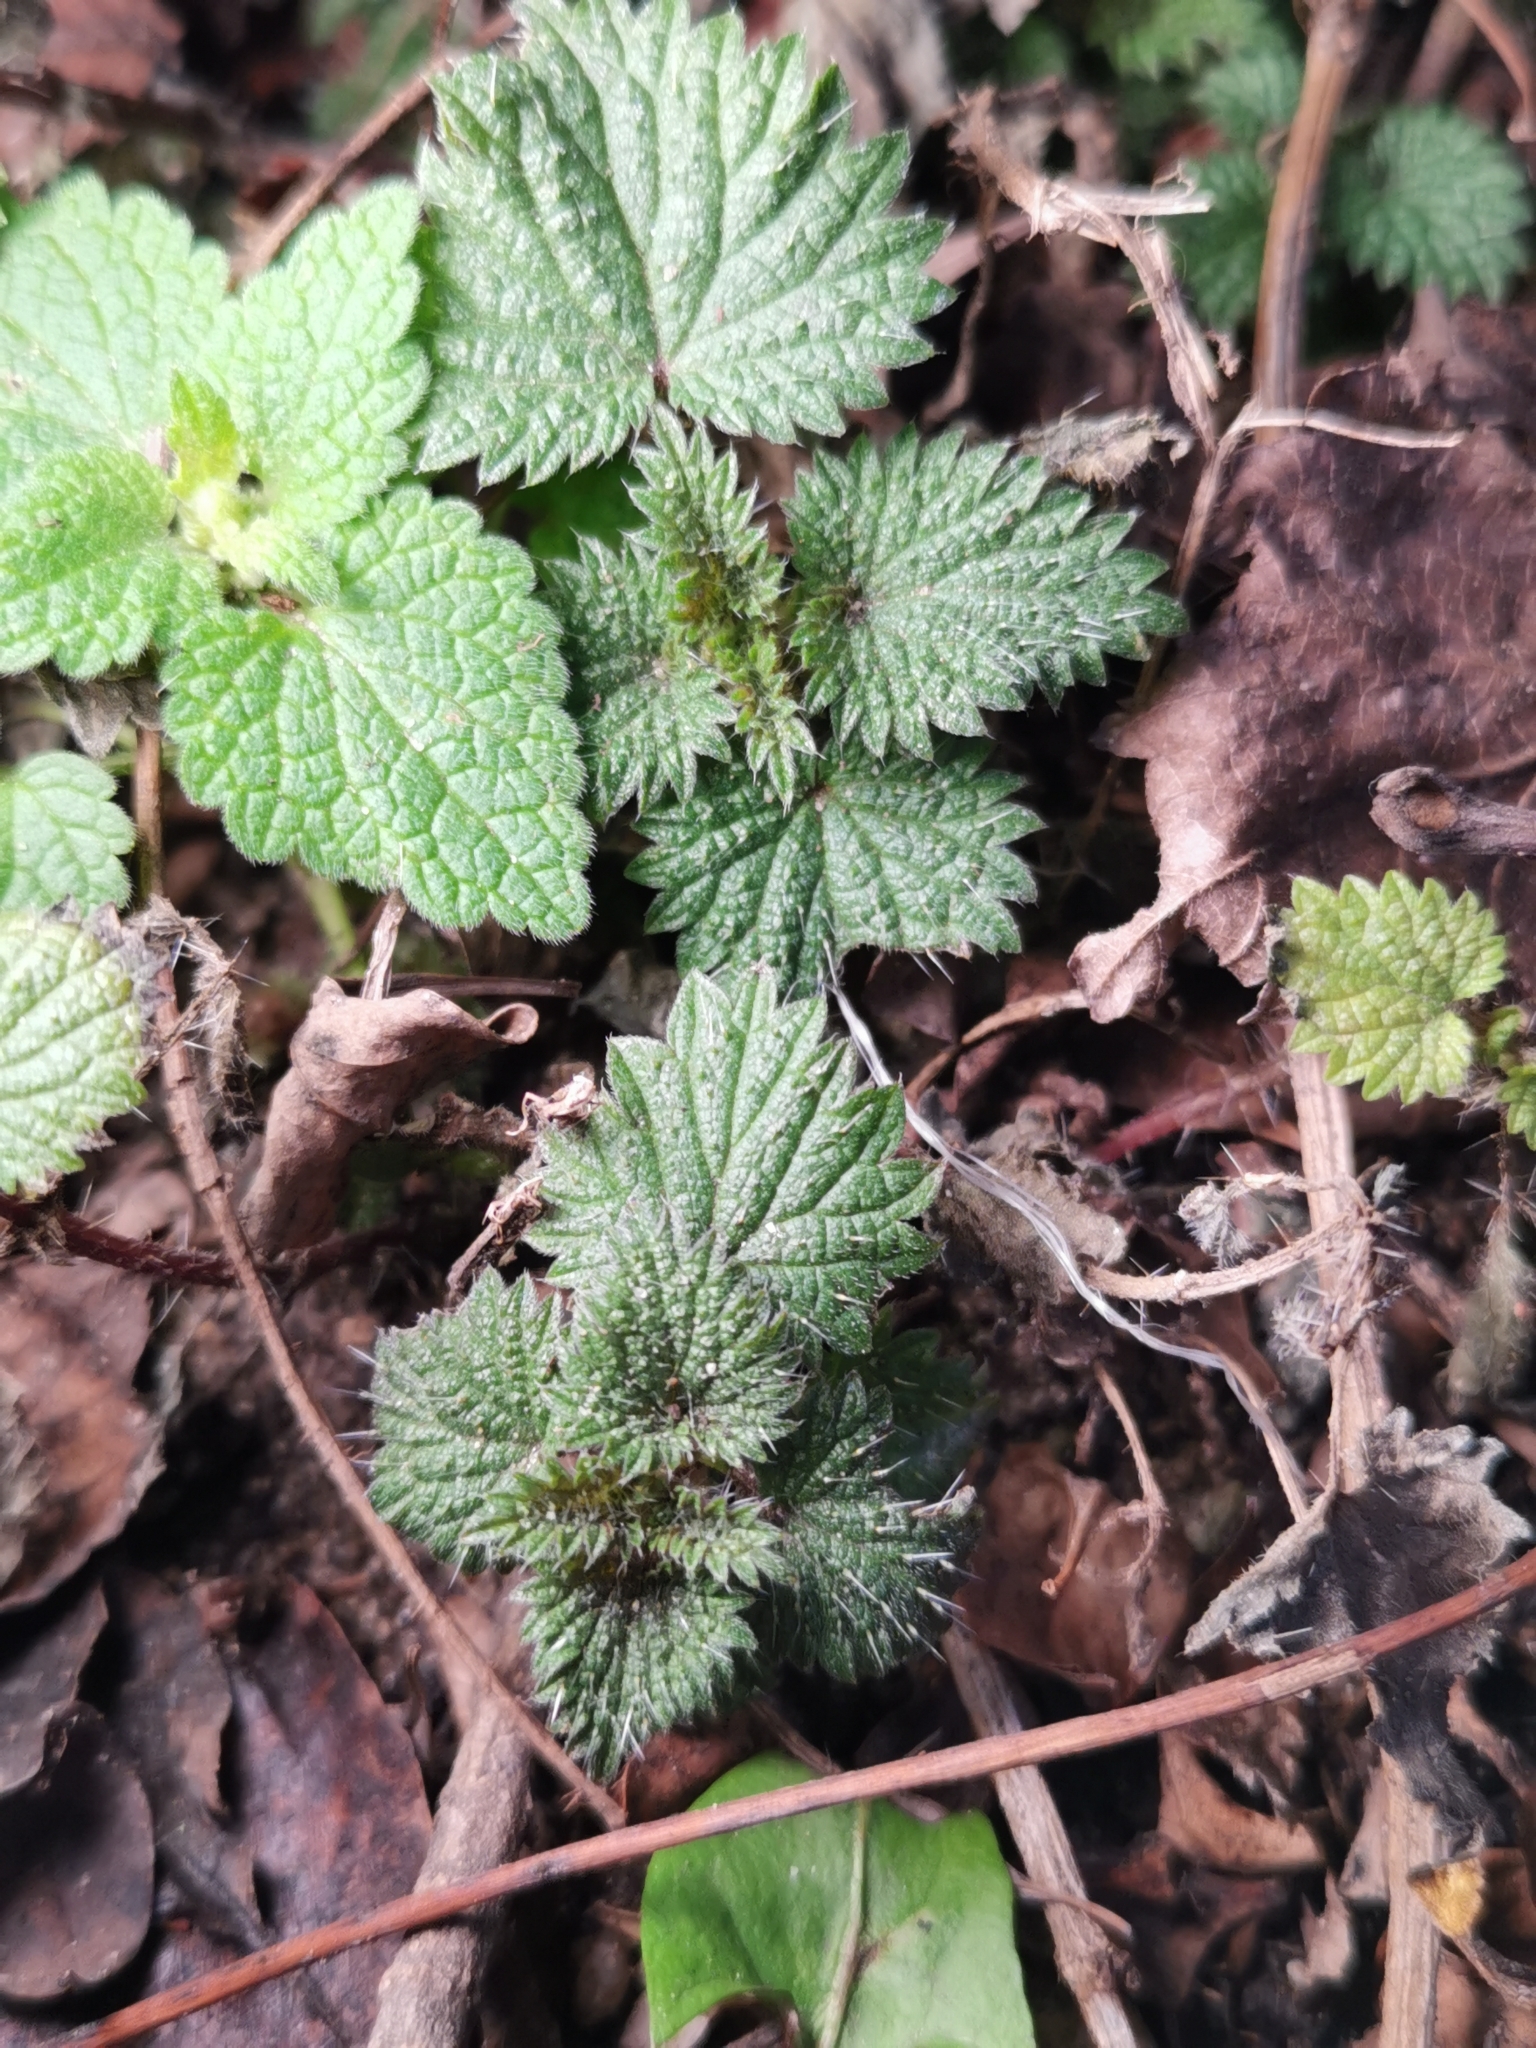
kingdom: Plantae
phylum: Tracheophyta
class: Magnoliopsida
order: Rosales
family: Urticaceae
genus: Urtica
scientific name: Urtica dioica
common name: Common nettle
